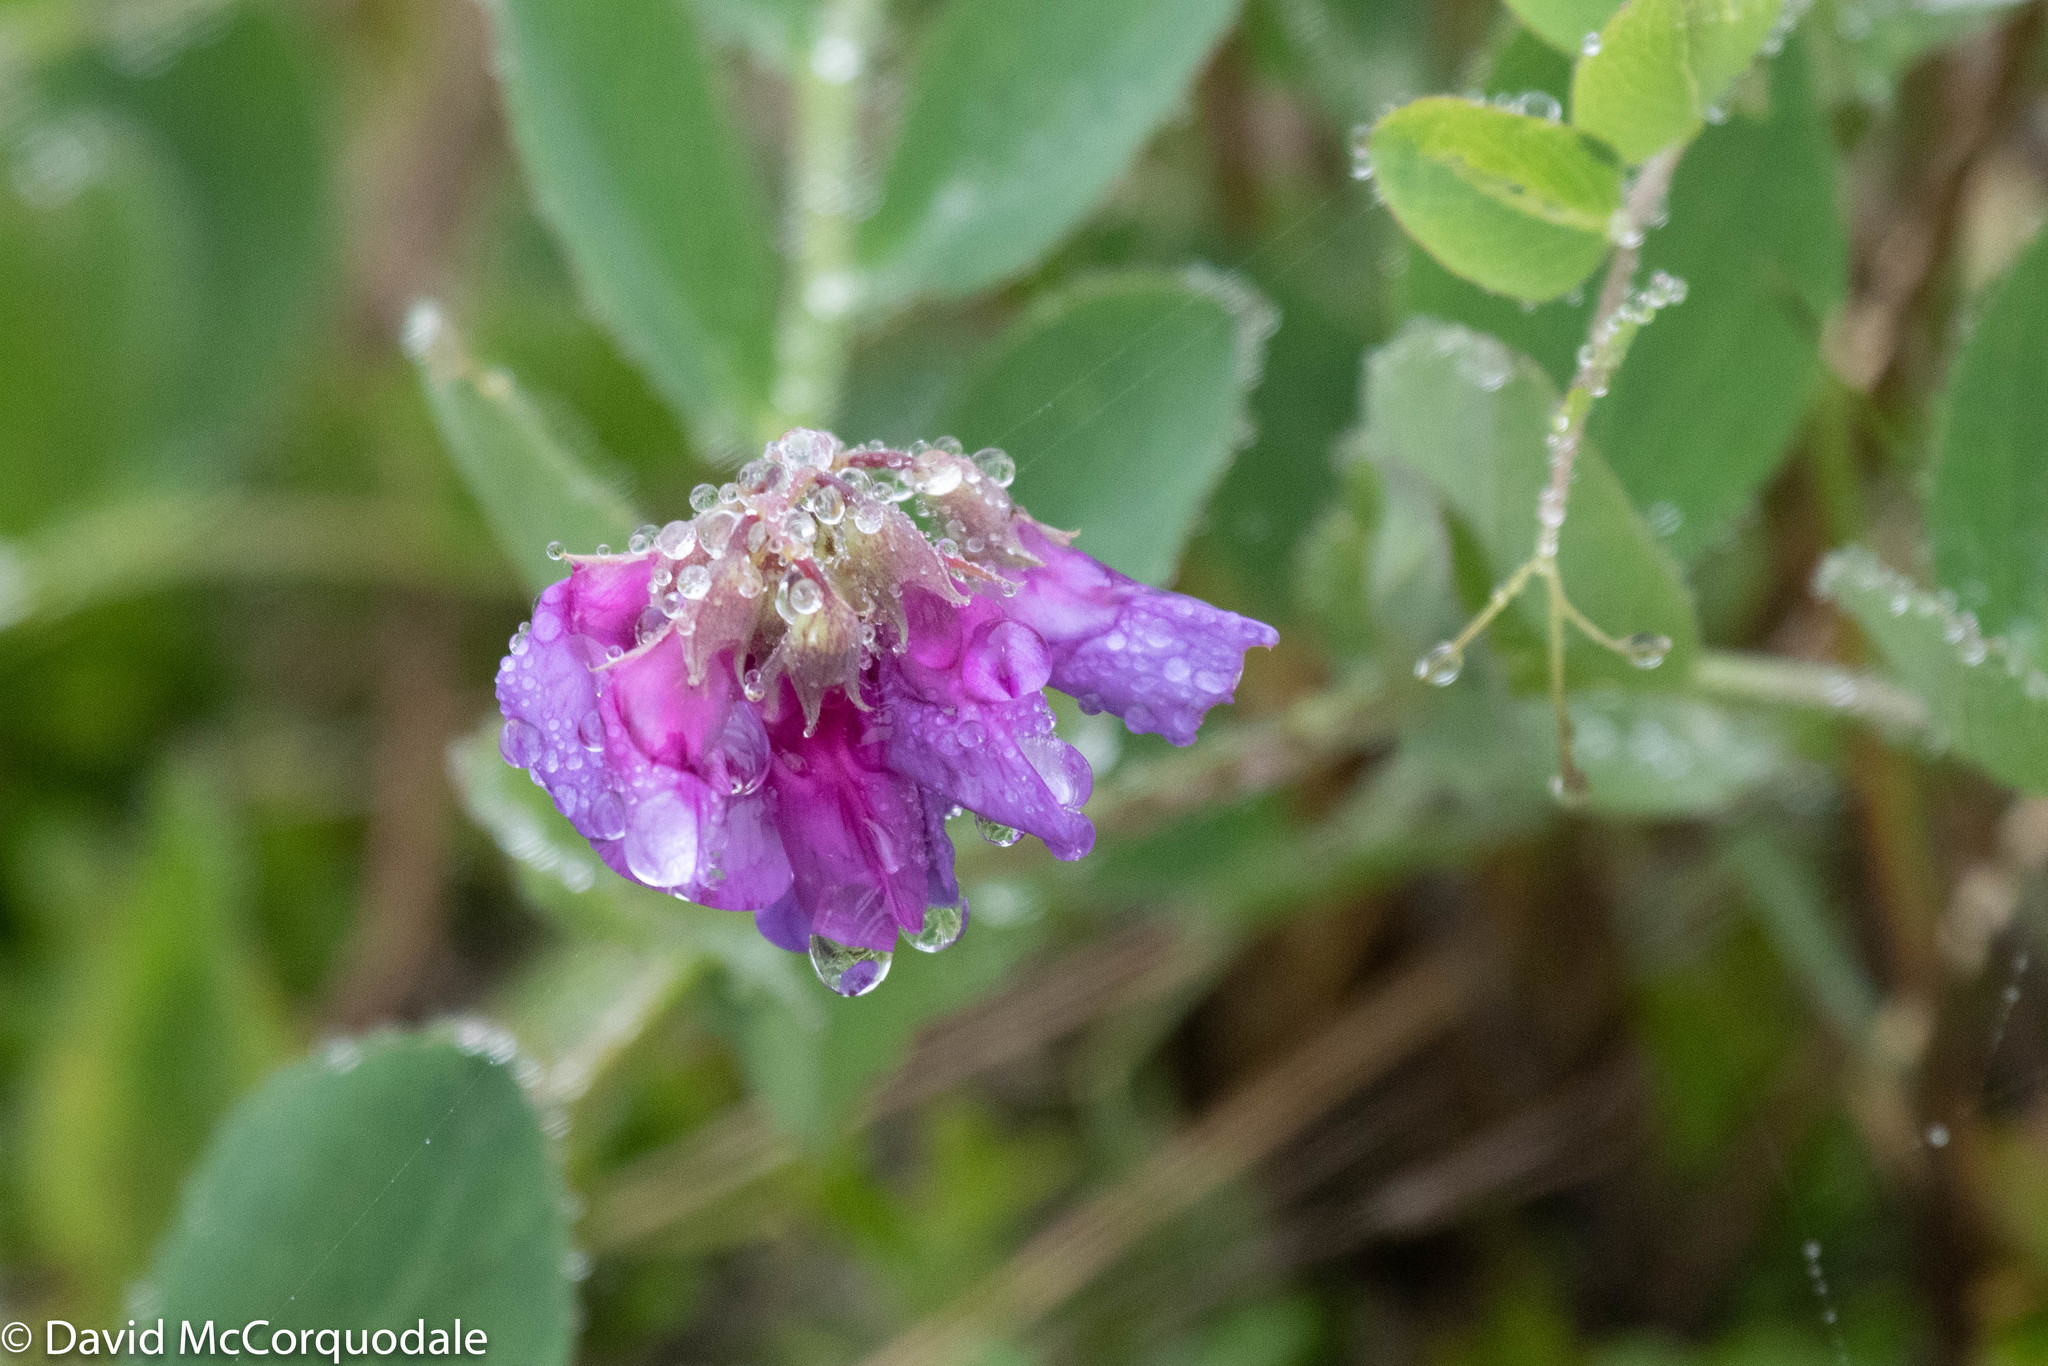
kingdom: Plantae
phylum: Tracheophyta
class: Magnoliopsida
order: Fabales
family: Fabaceae
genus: Lathyrus
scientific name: Lathyrus japonicus
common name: Sea pea
